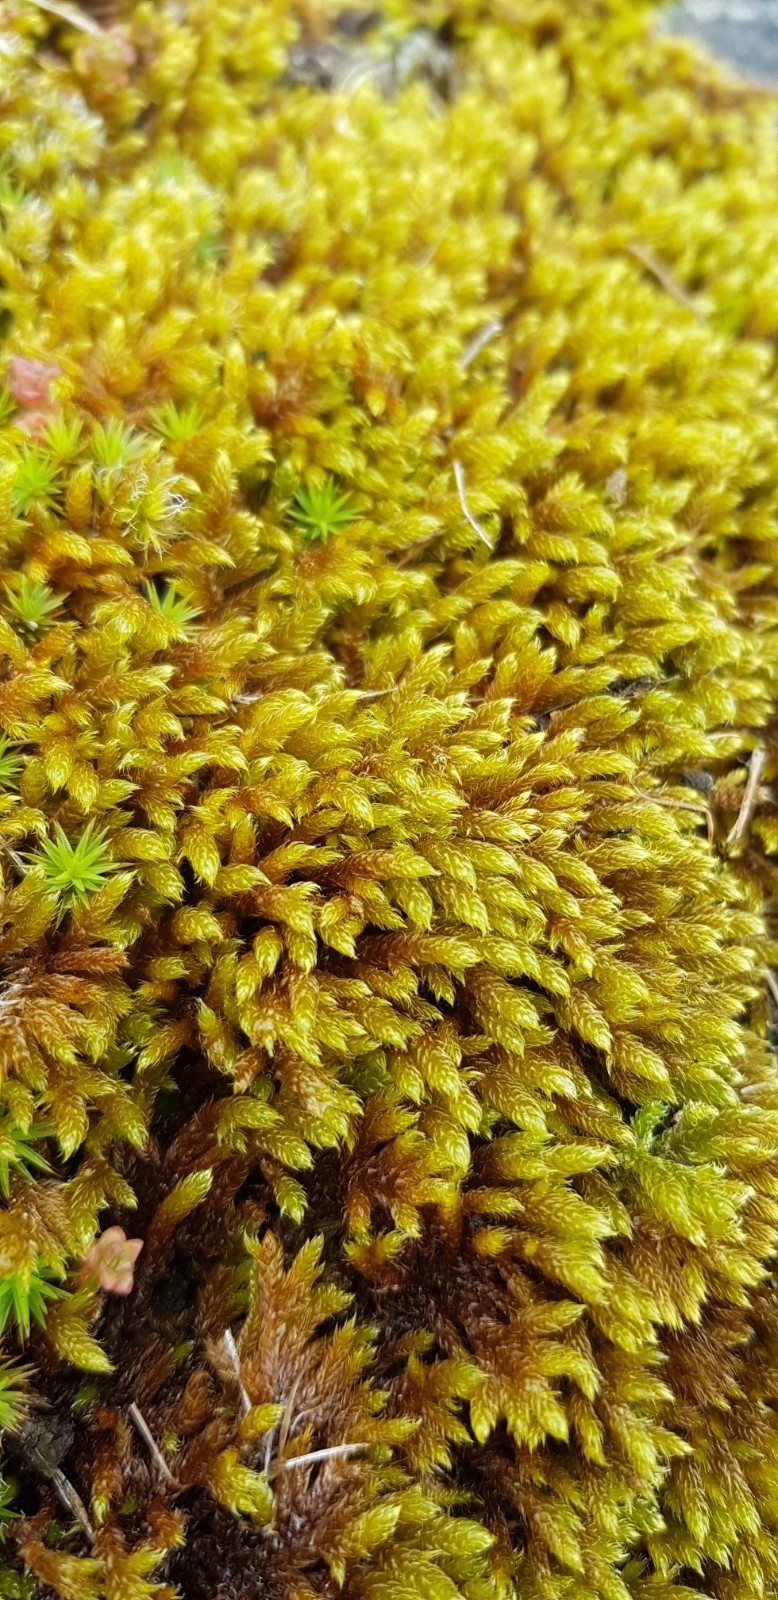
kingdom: Plantae
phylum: Bryophyta
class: Bryopsida
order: Hypnales
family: Hypnaceae
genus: Hypnum
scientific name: Hypnum cupressiforme
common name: Cypress-leaved plait-moss
